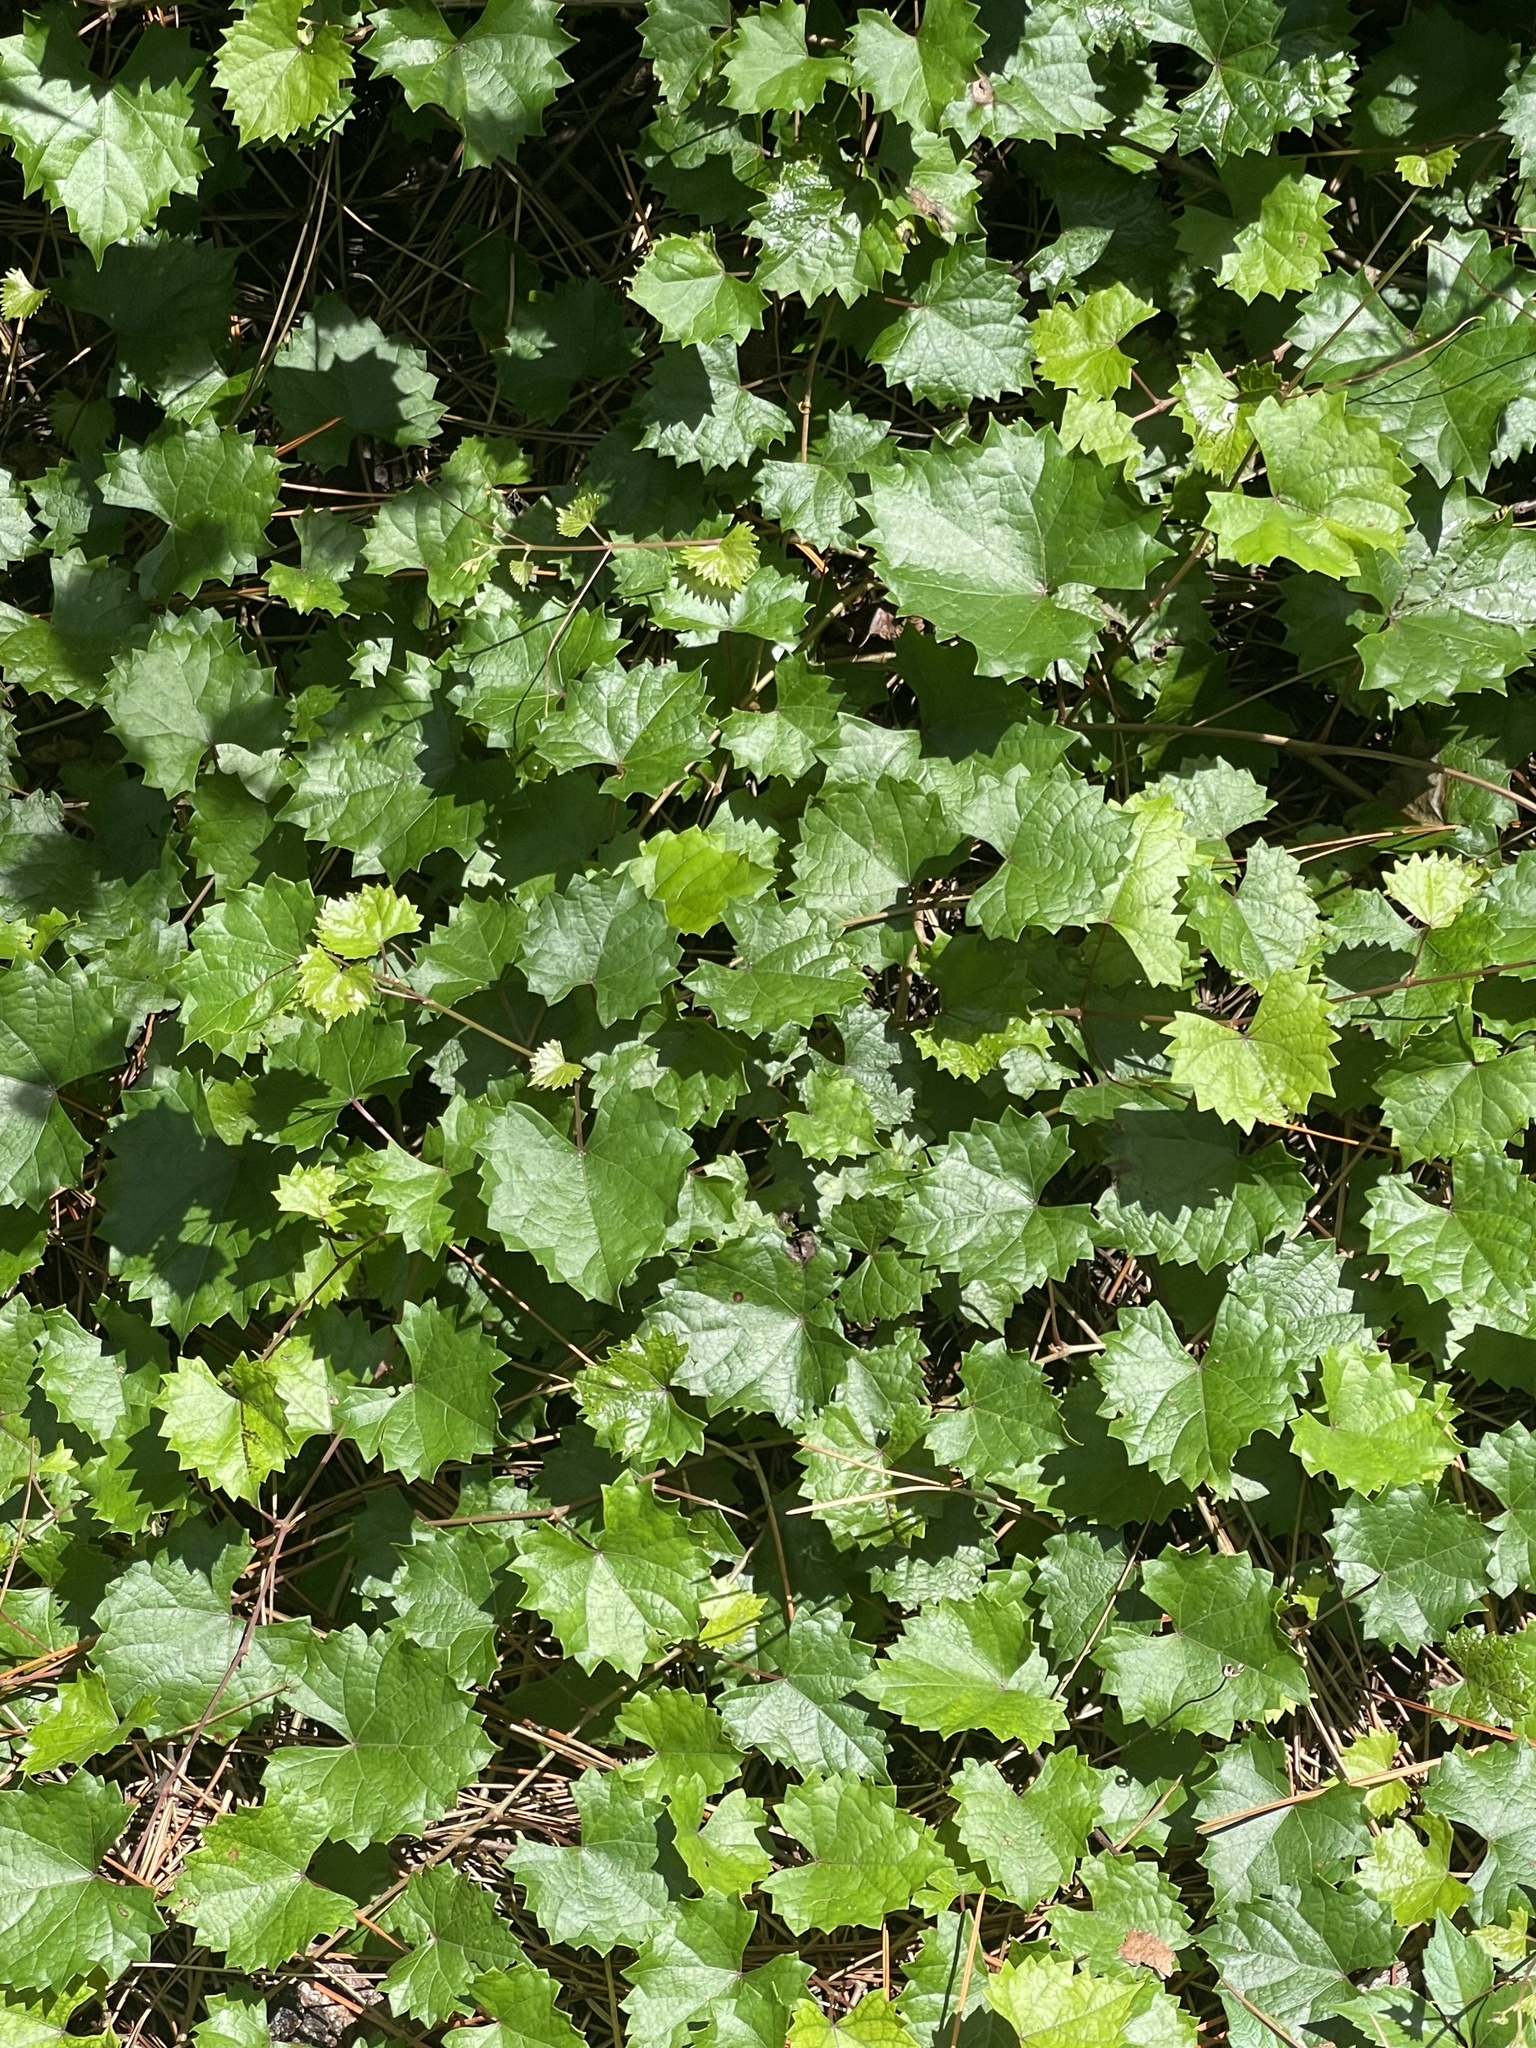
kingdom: Plantae
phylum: Tracheophyta
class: Magnoliopsida
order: Vitales
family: Vitaceae
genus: Vitis
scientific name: Vitis rotundifolia
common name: Muscadine grape
